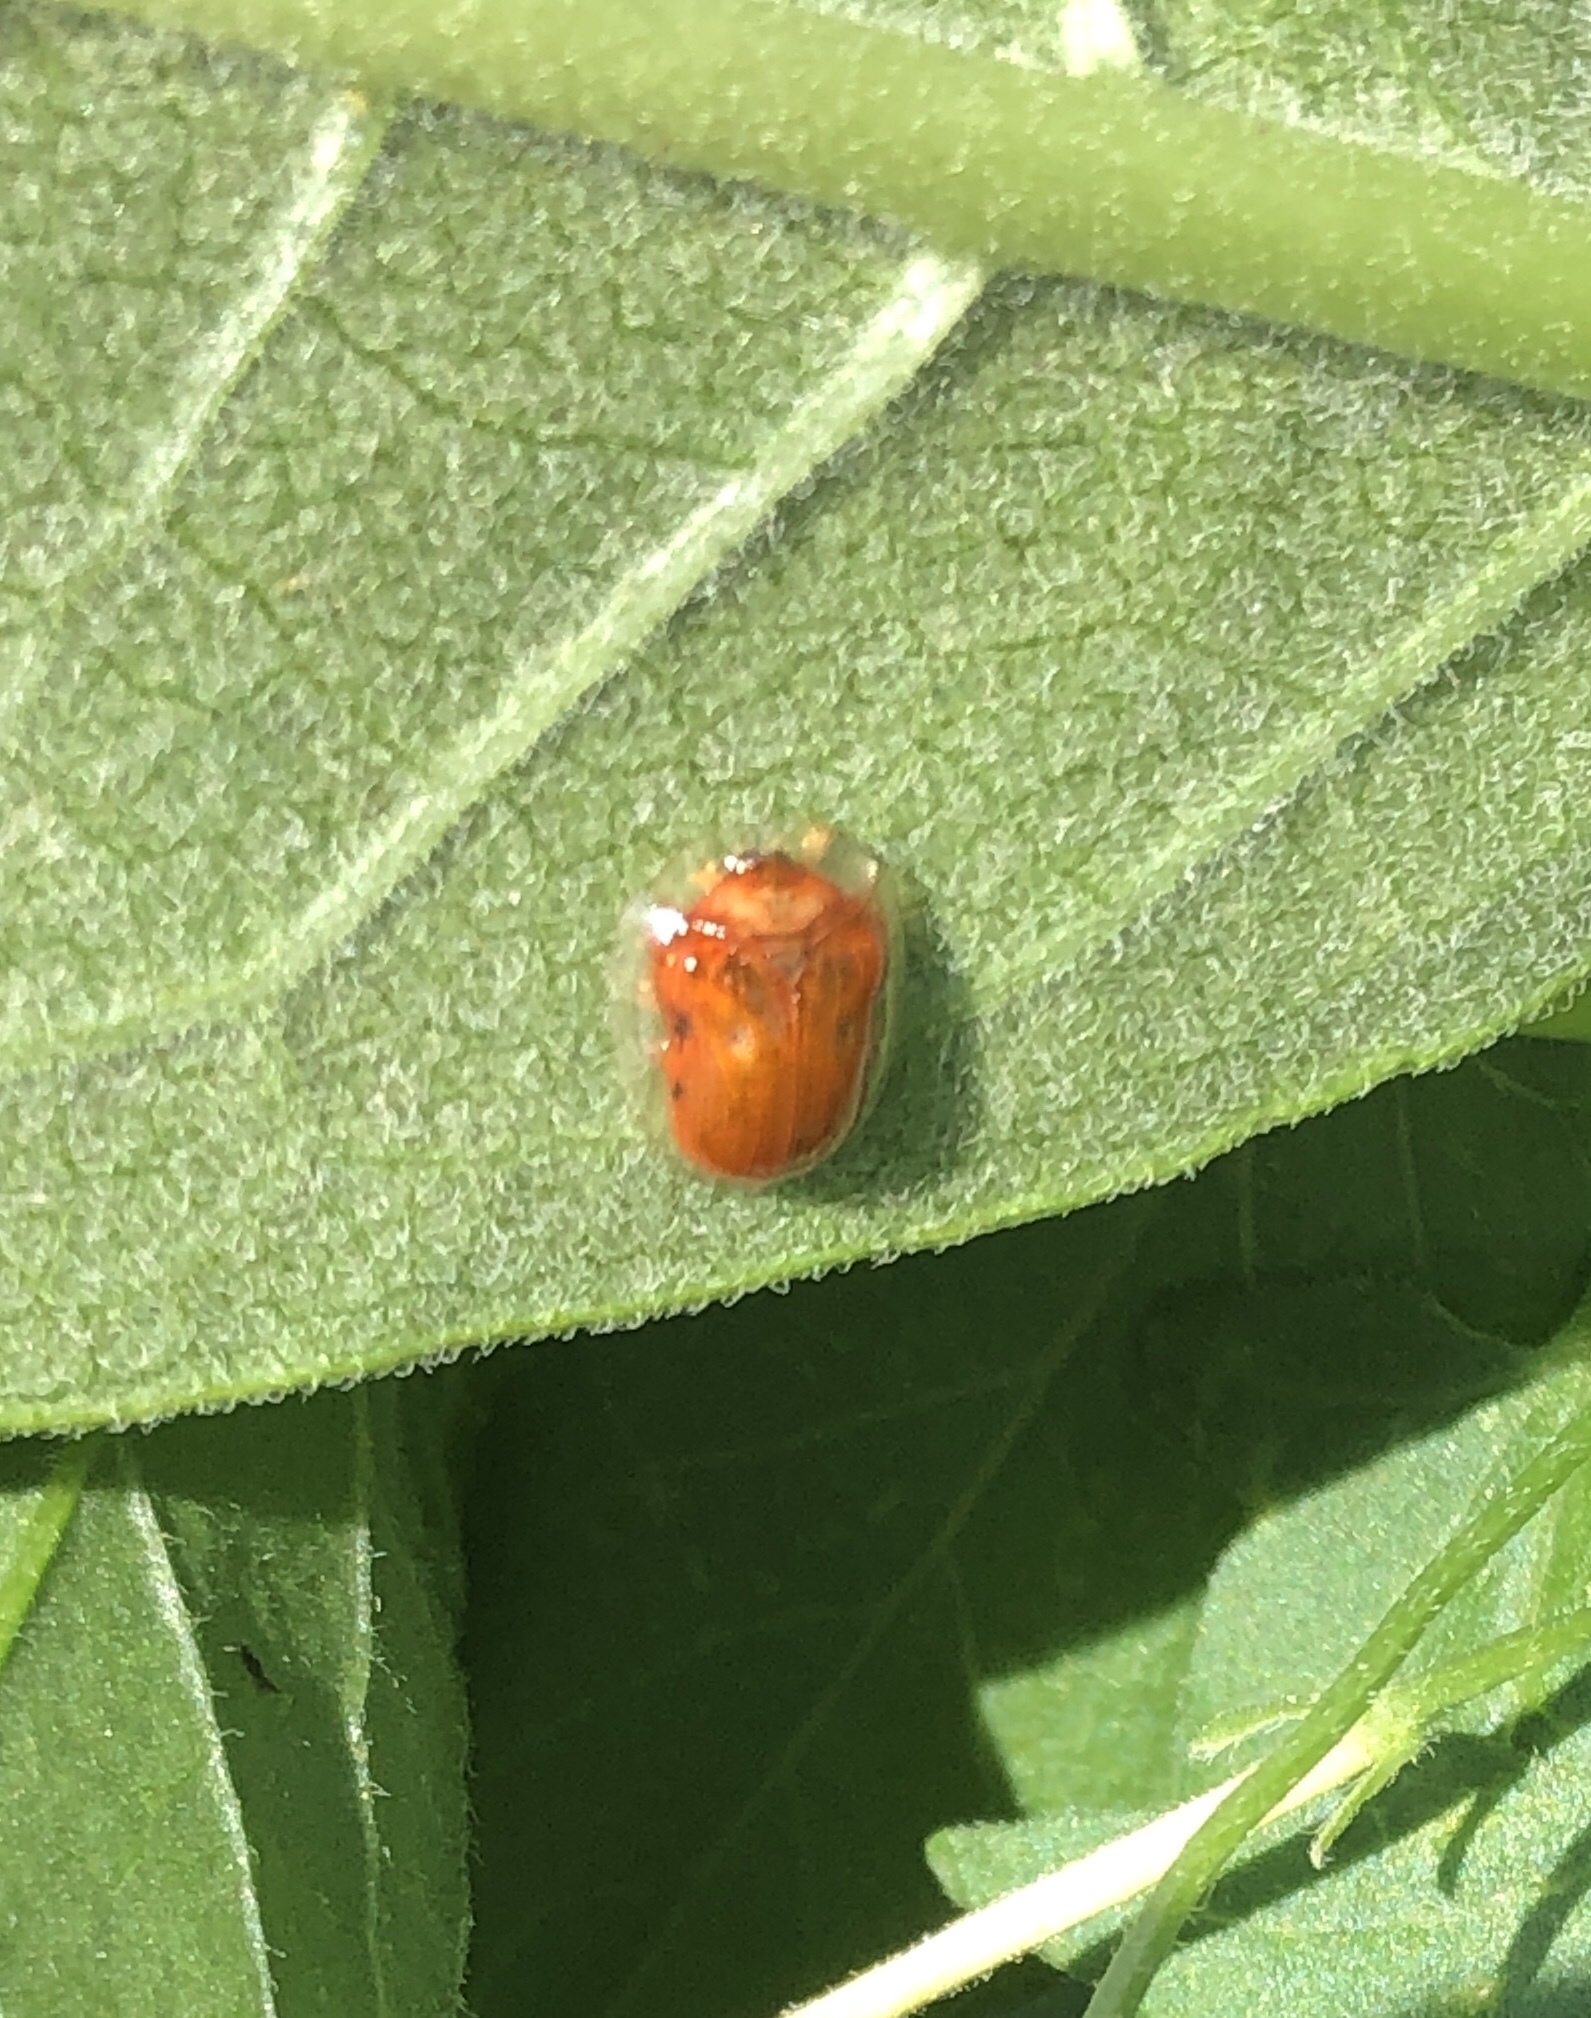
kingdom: Animalia
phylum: Arthropoda
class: Insecta
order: Coleoptera
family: Chrysomelidae
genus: Charidotella
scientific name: Charidotella sexpunctata
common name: Golden tortoise beetle
